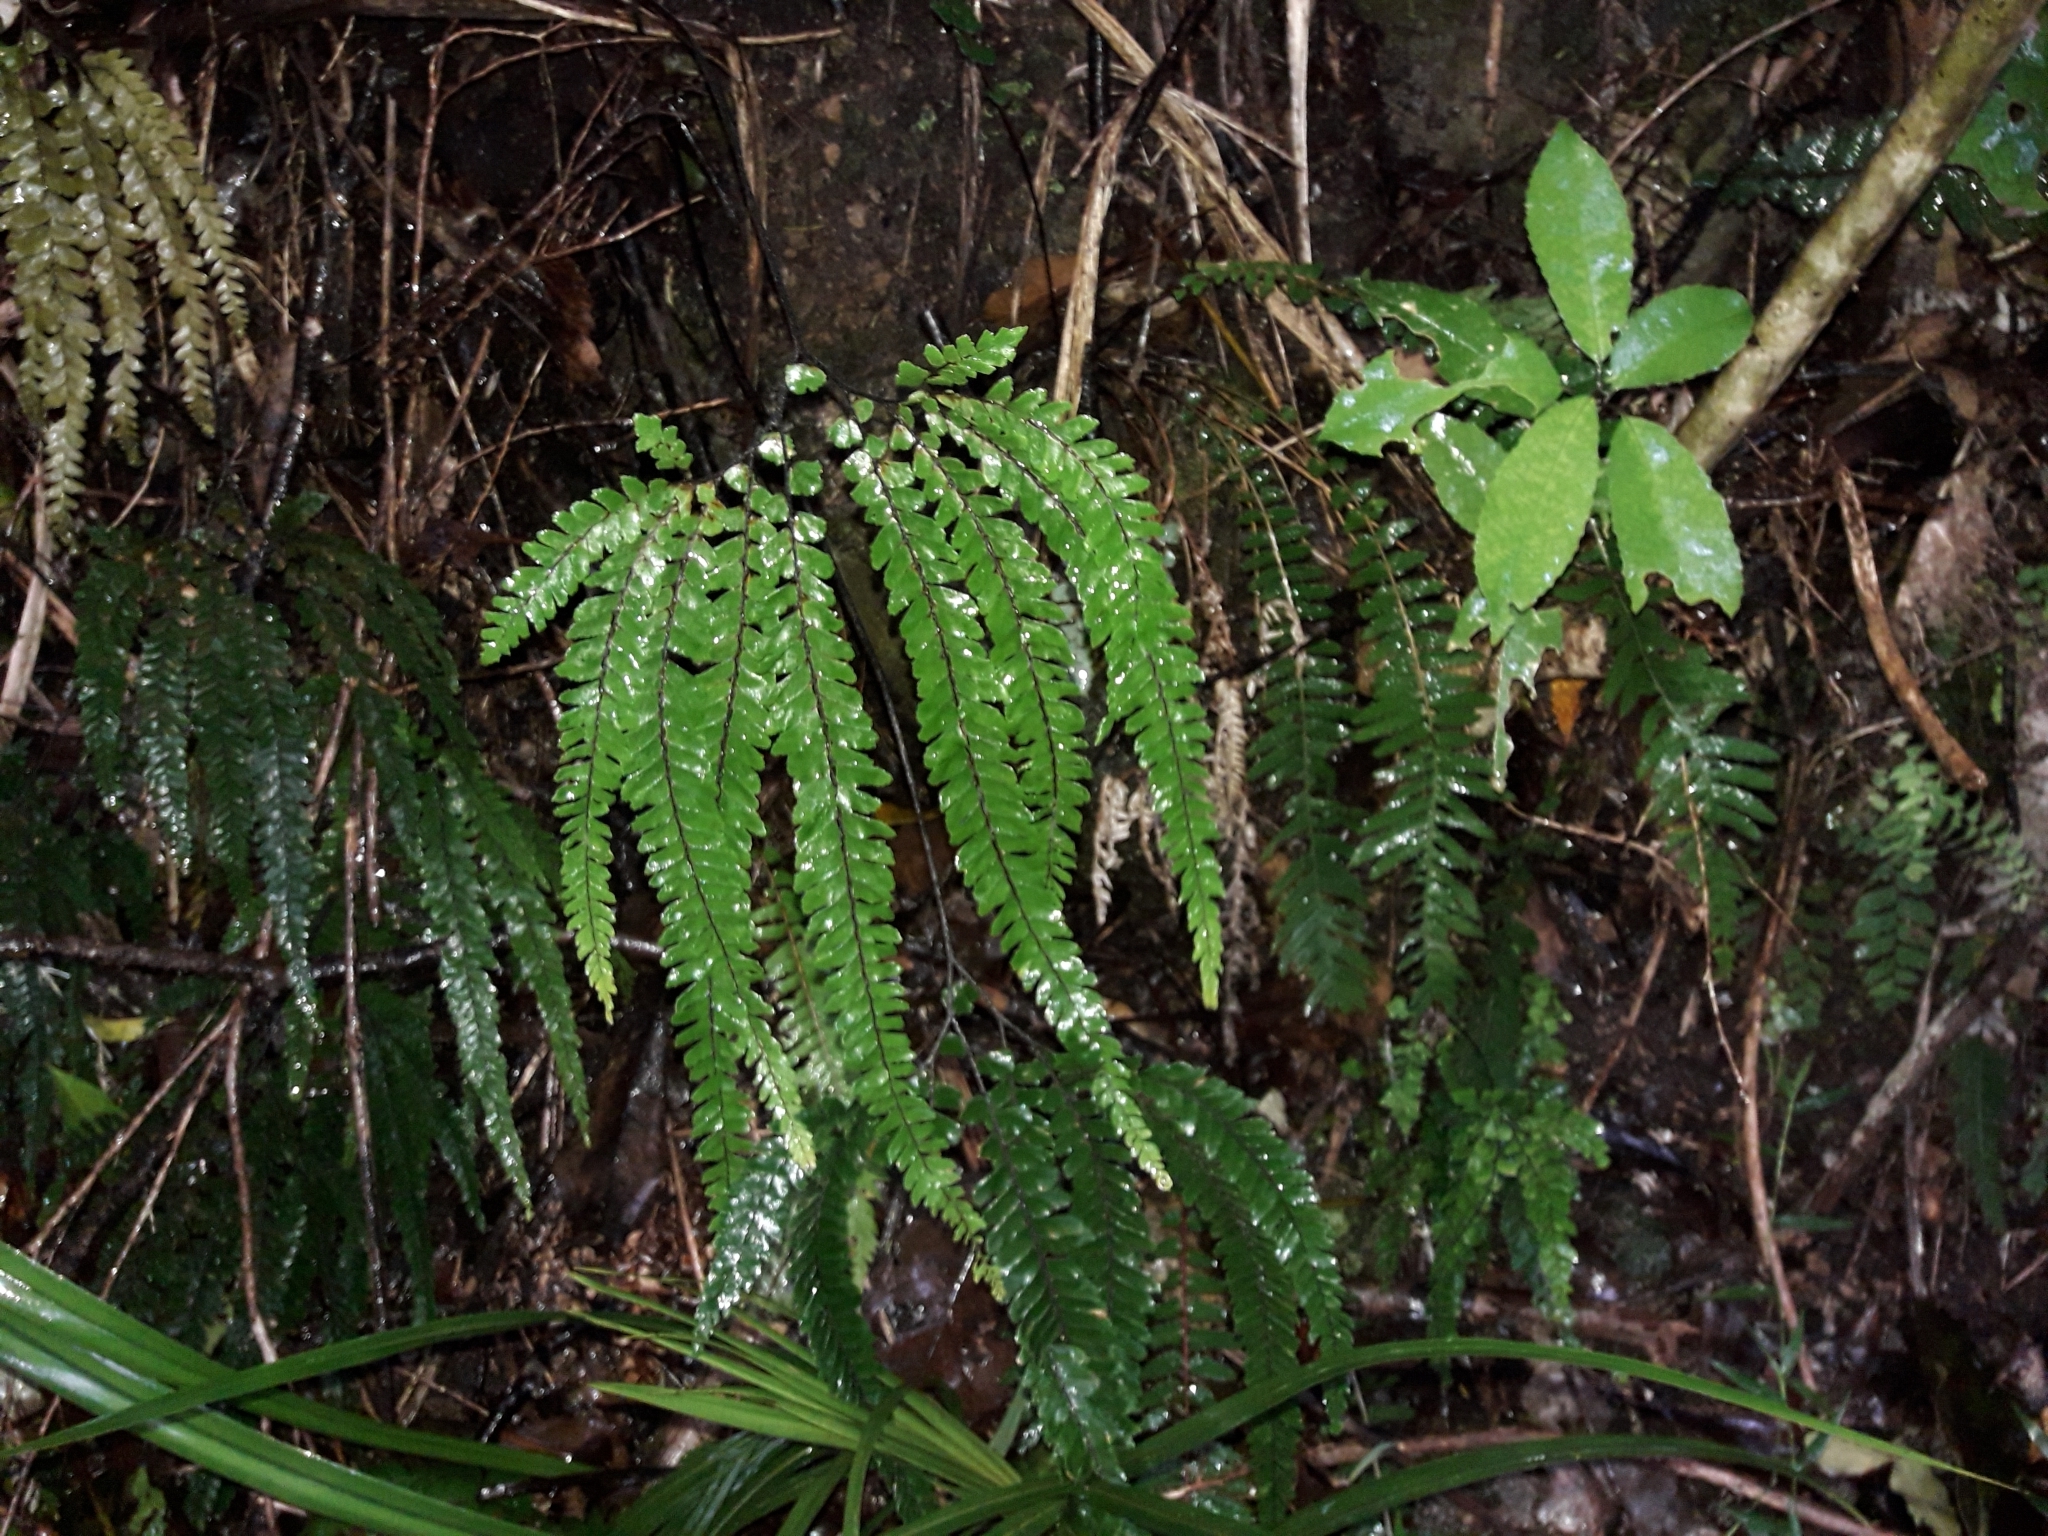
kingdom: Plantae
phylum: Tracheophyta
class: Polypodiopsida
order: Polypodiales
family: Pteridaceae
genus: Adiantum
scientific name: Adiantum hispidulum
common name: Rough maidenhair
